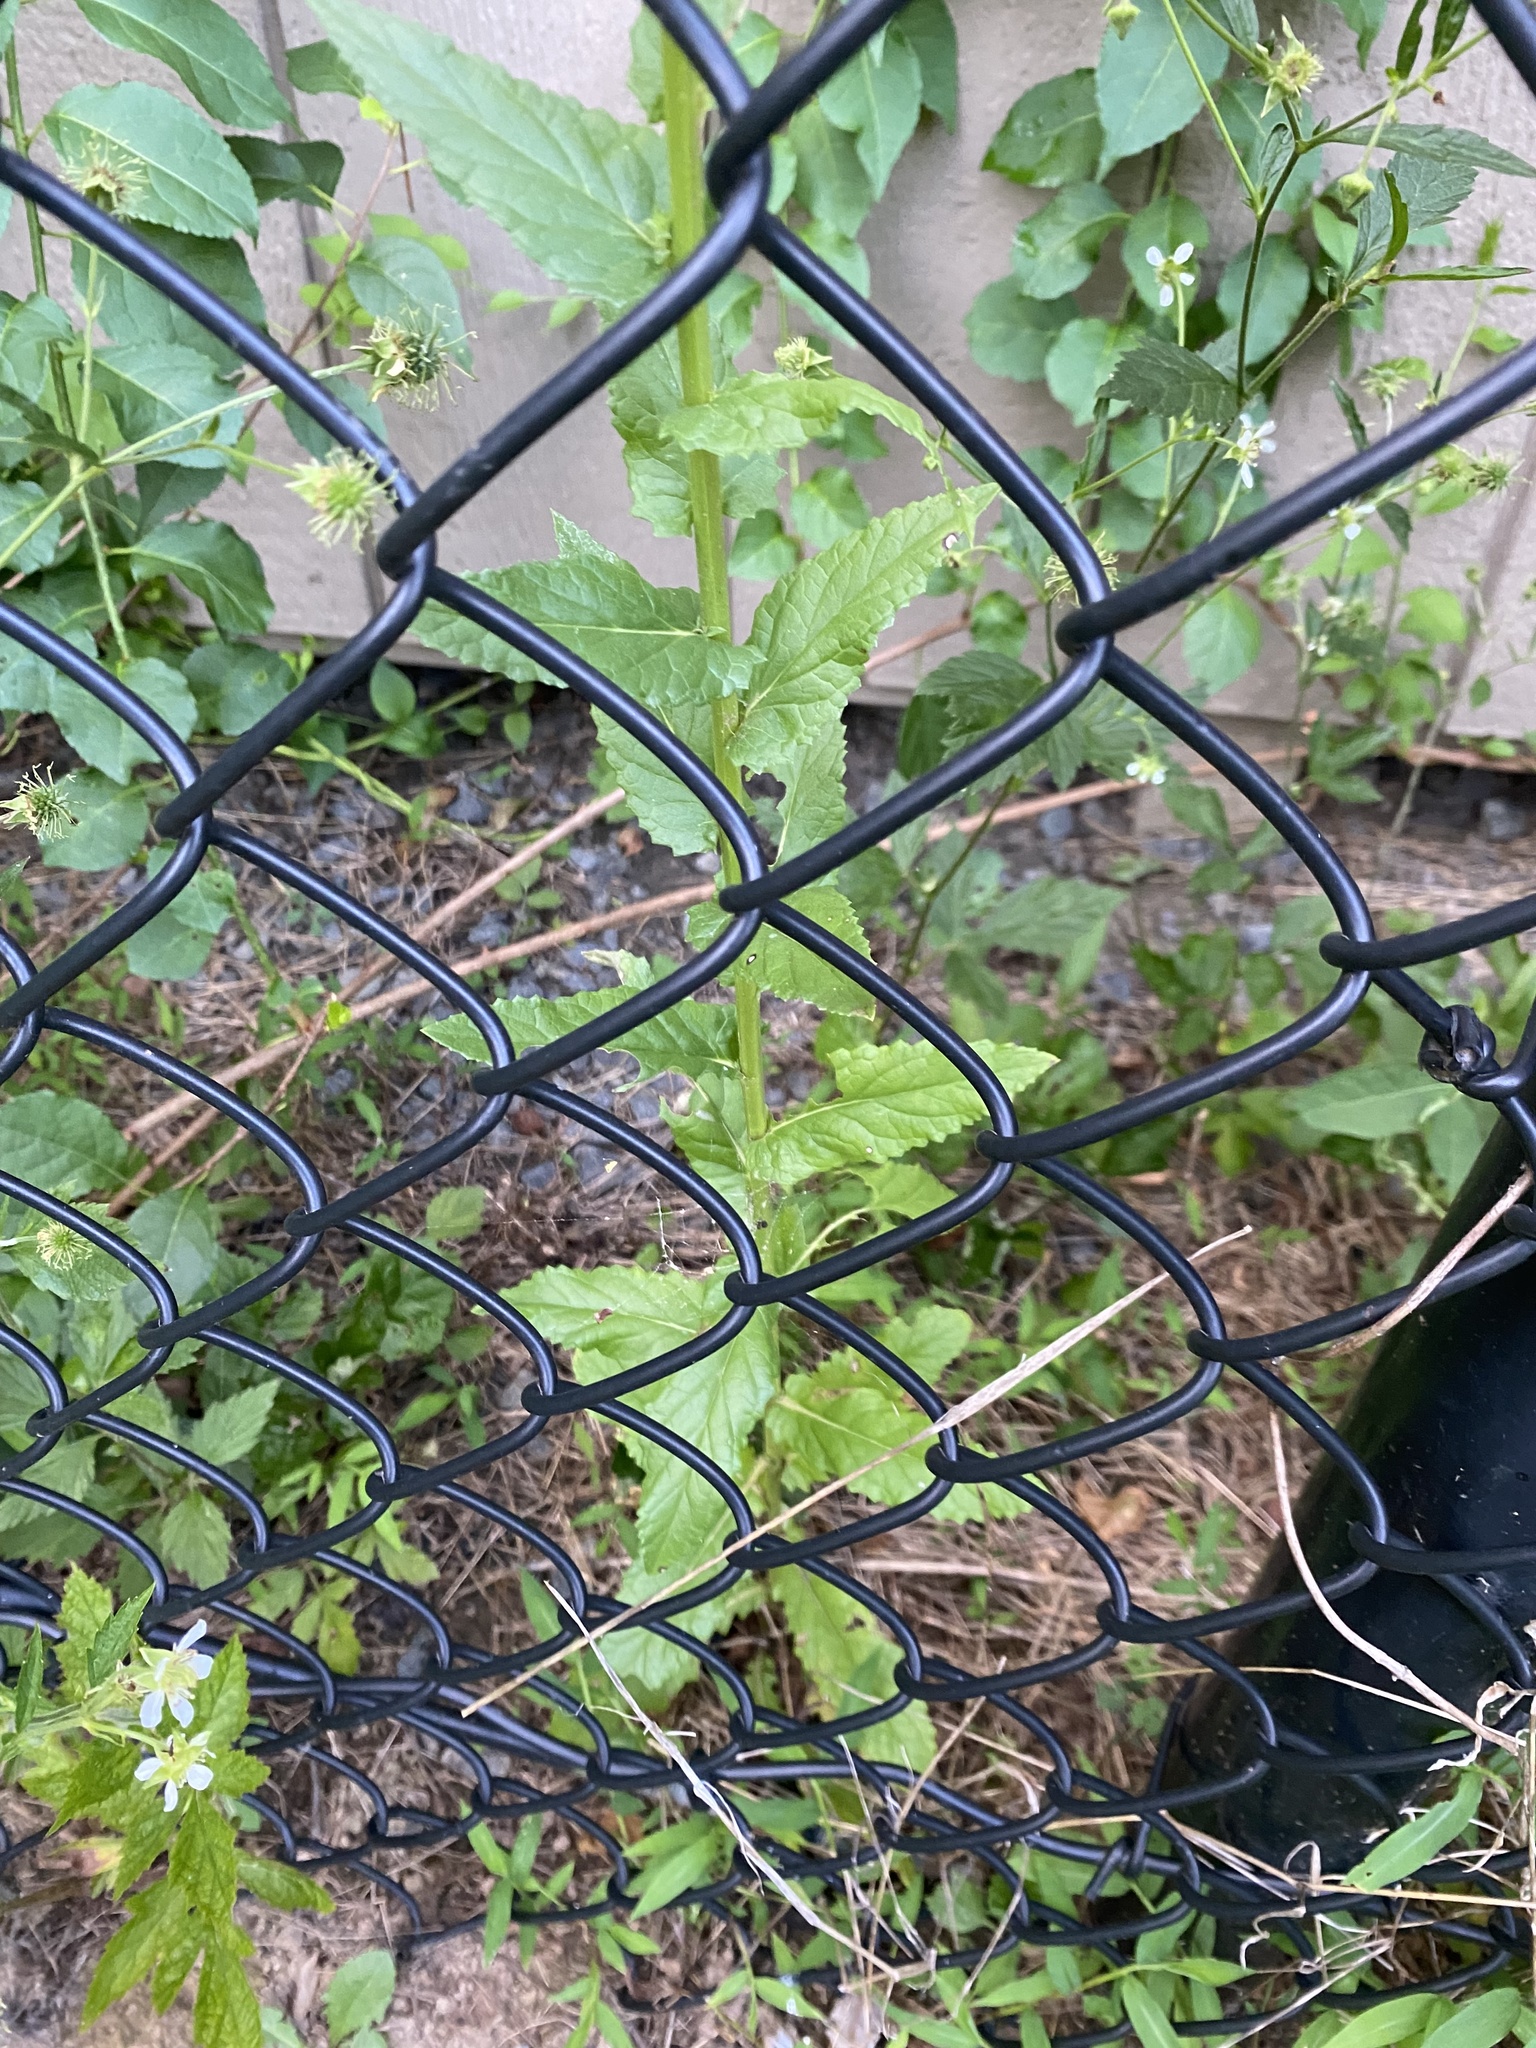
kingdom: Plantae
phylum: Tracheophyta
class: Magnoliopsida
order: Lamiales
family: Scrophulariaceae
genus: Verbascum
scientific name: Verbascum blattaria
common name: Moth mullein
